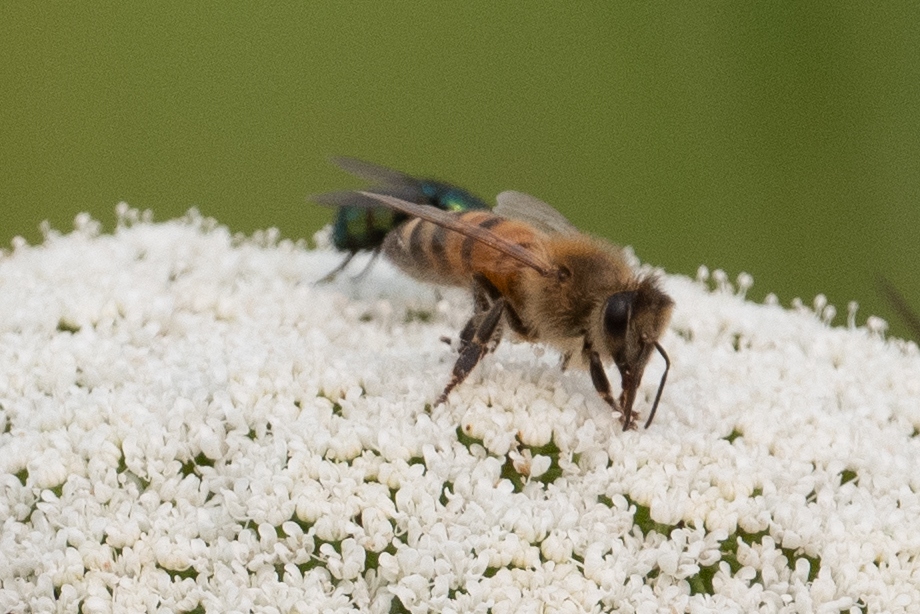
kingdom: Animalia
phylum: Arthropoda
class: Insecta
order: Hymenoptera
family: Apidae
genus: Apis
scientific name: Apis mellifera
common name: Honey bee
